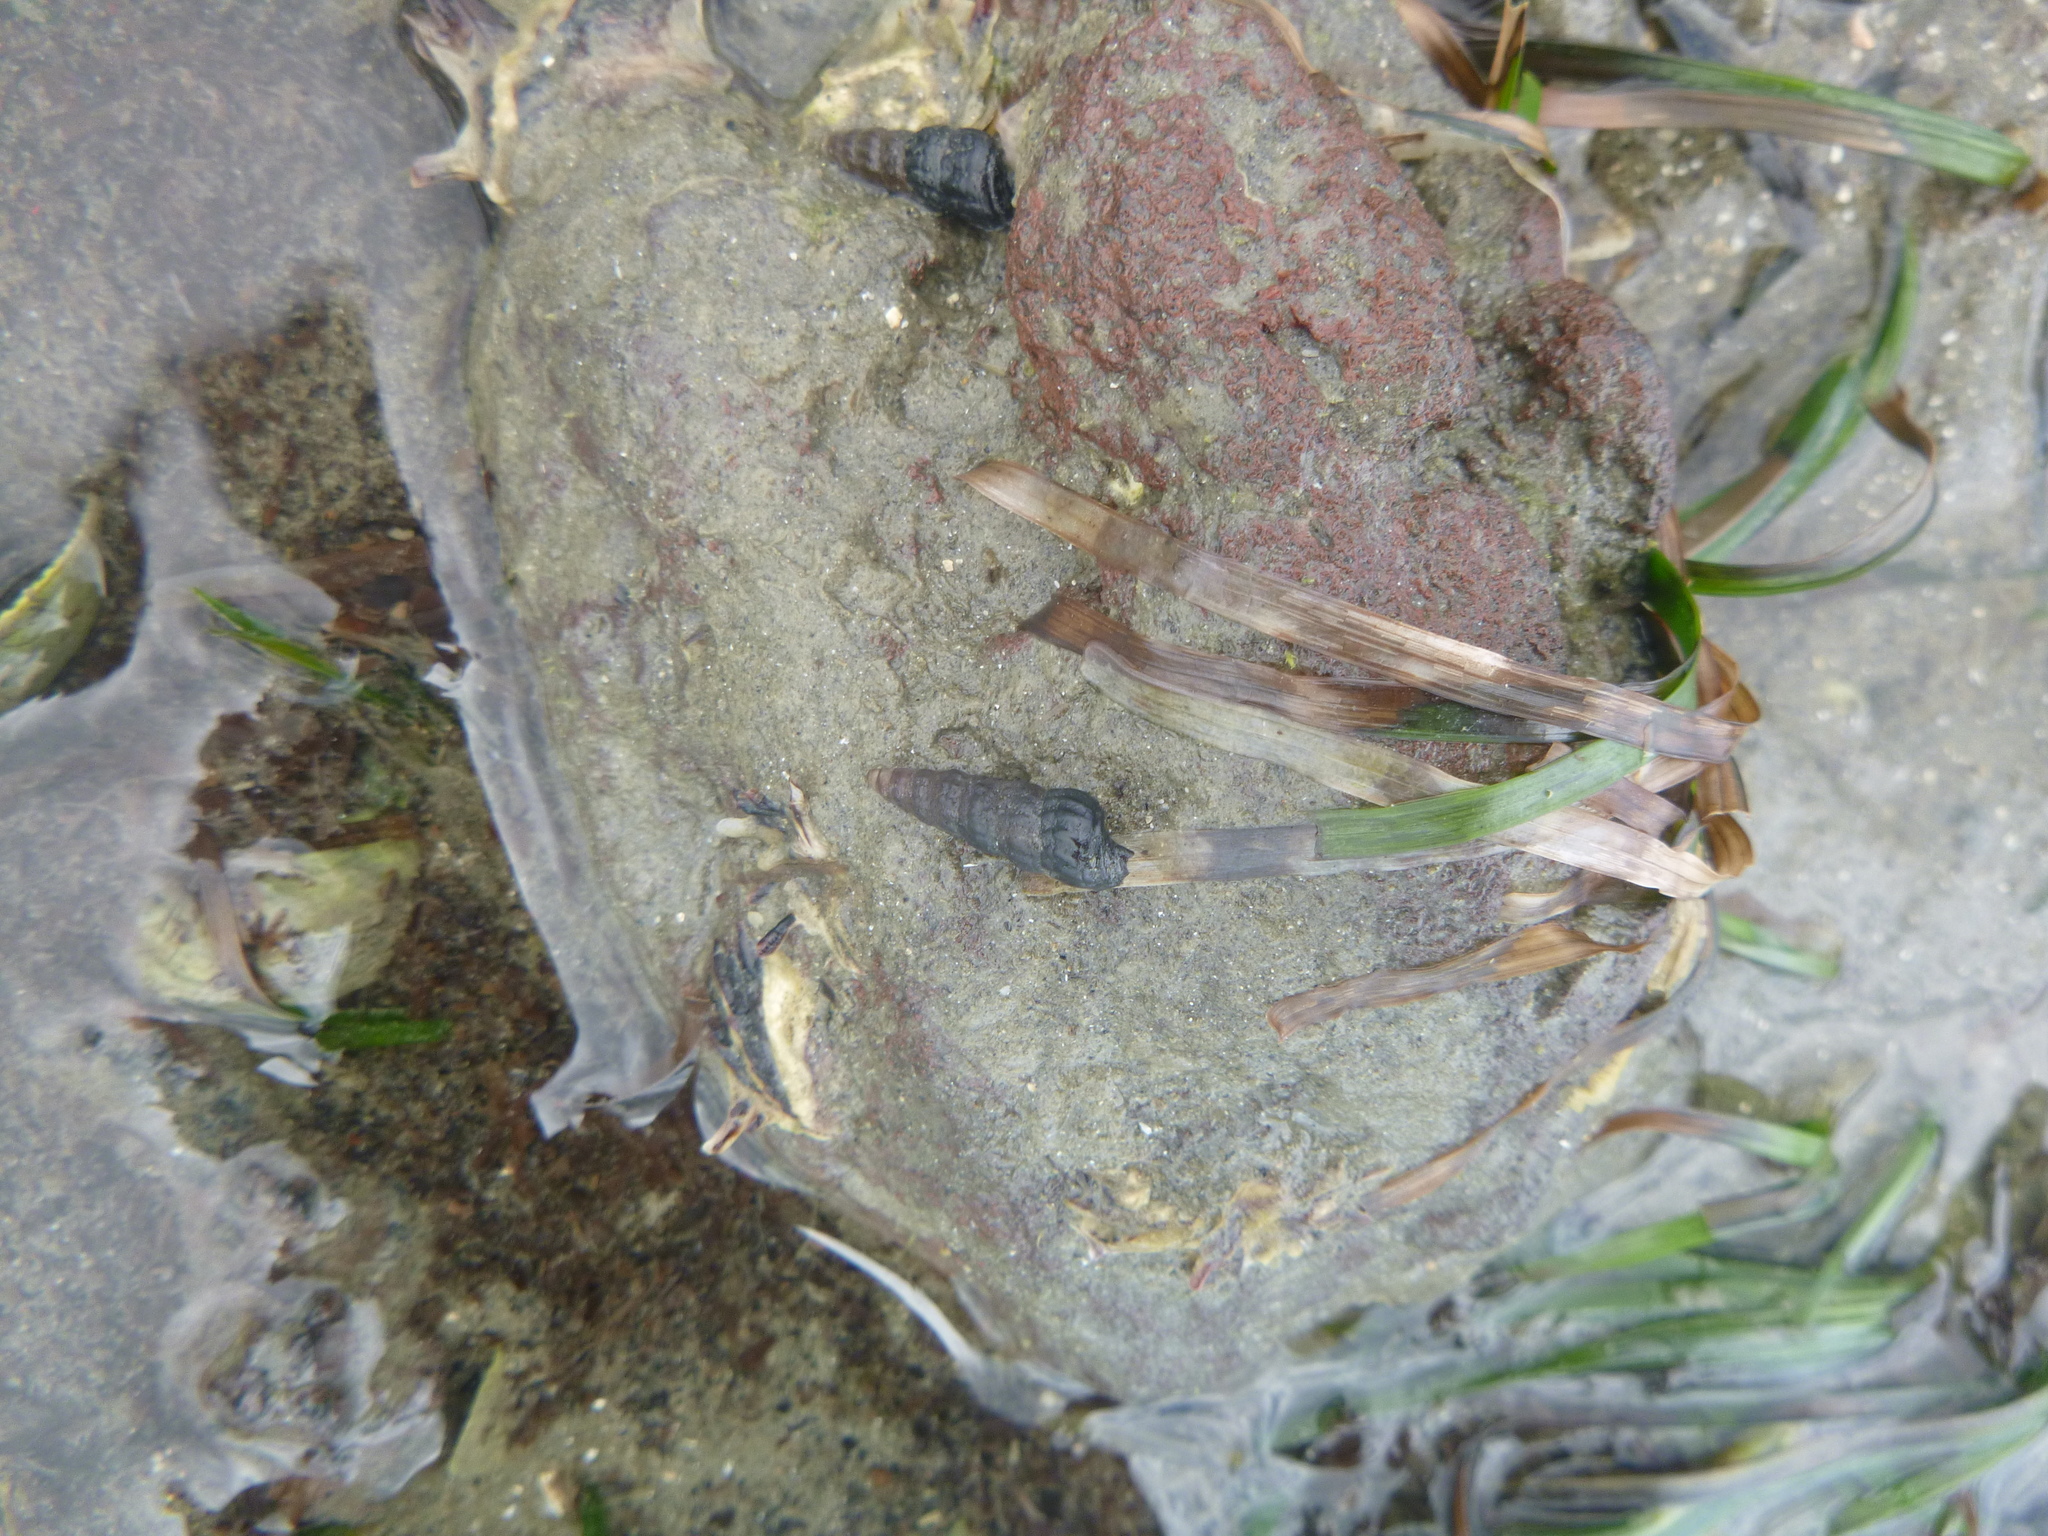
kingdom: Animalia
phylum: Mollusca
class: Gastropoda
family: Batillariidae
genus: Zeacumantus
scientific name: Zeacumantus lutulentus
